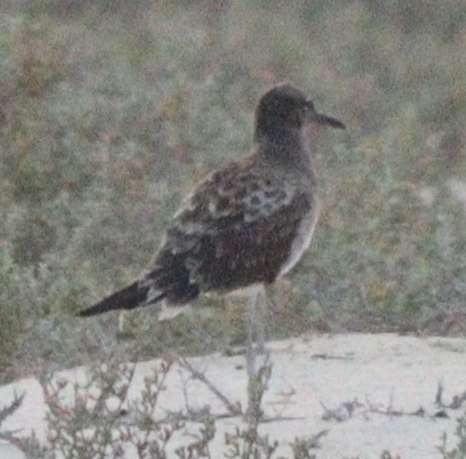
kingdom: Animalia
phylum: Chordata
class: Aves
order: Charadriiformes
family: Laridae
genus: Ichthyaetus
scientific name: Ichthyaetus leucophthalmus
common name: White-eyed gull
